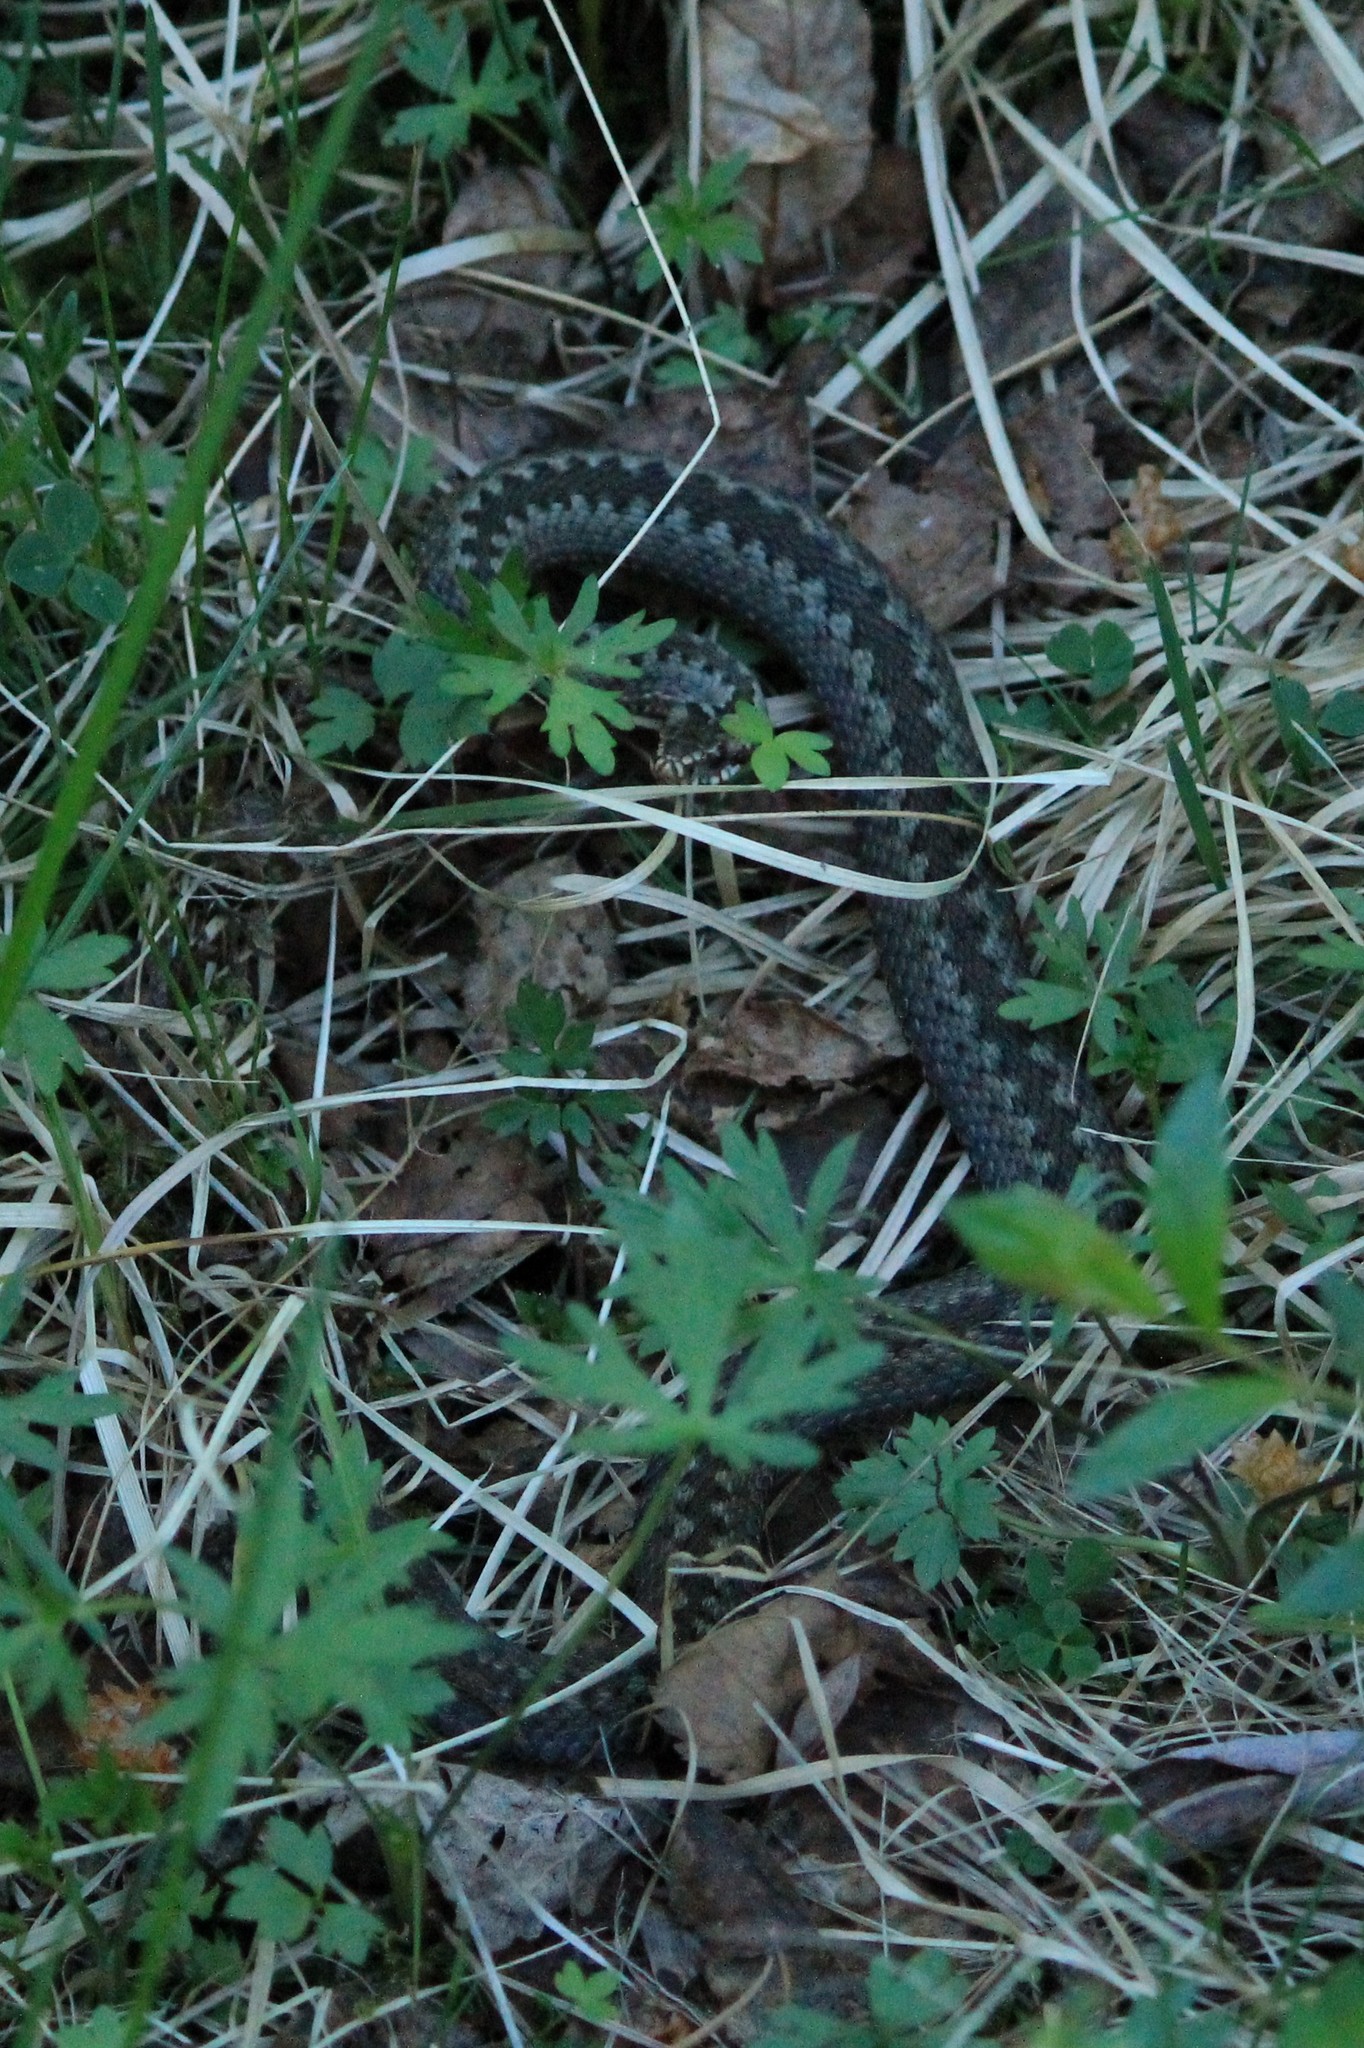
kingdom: Animalia
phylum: Chordata
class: Squamata
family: Viperidae
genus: Vipera
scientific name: Vipera berus
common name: Adder
